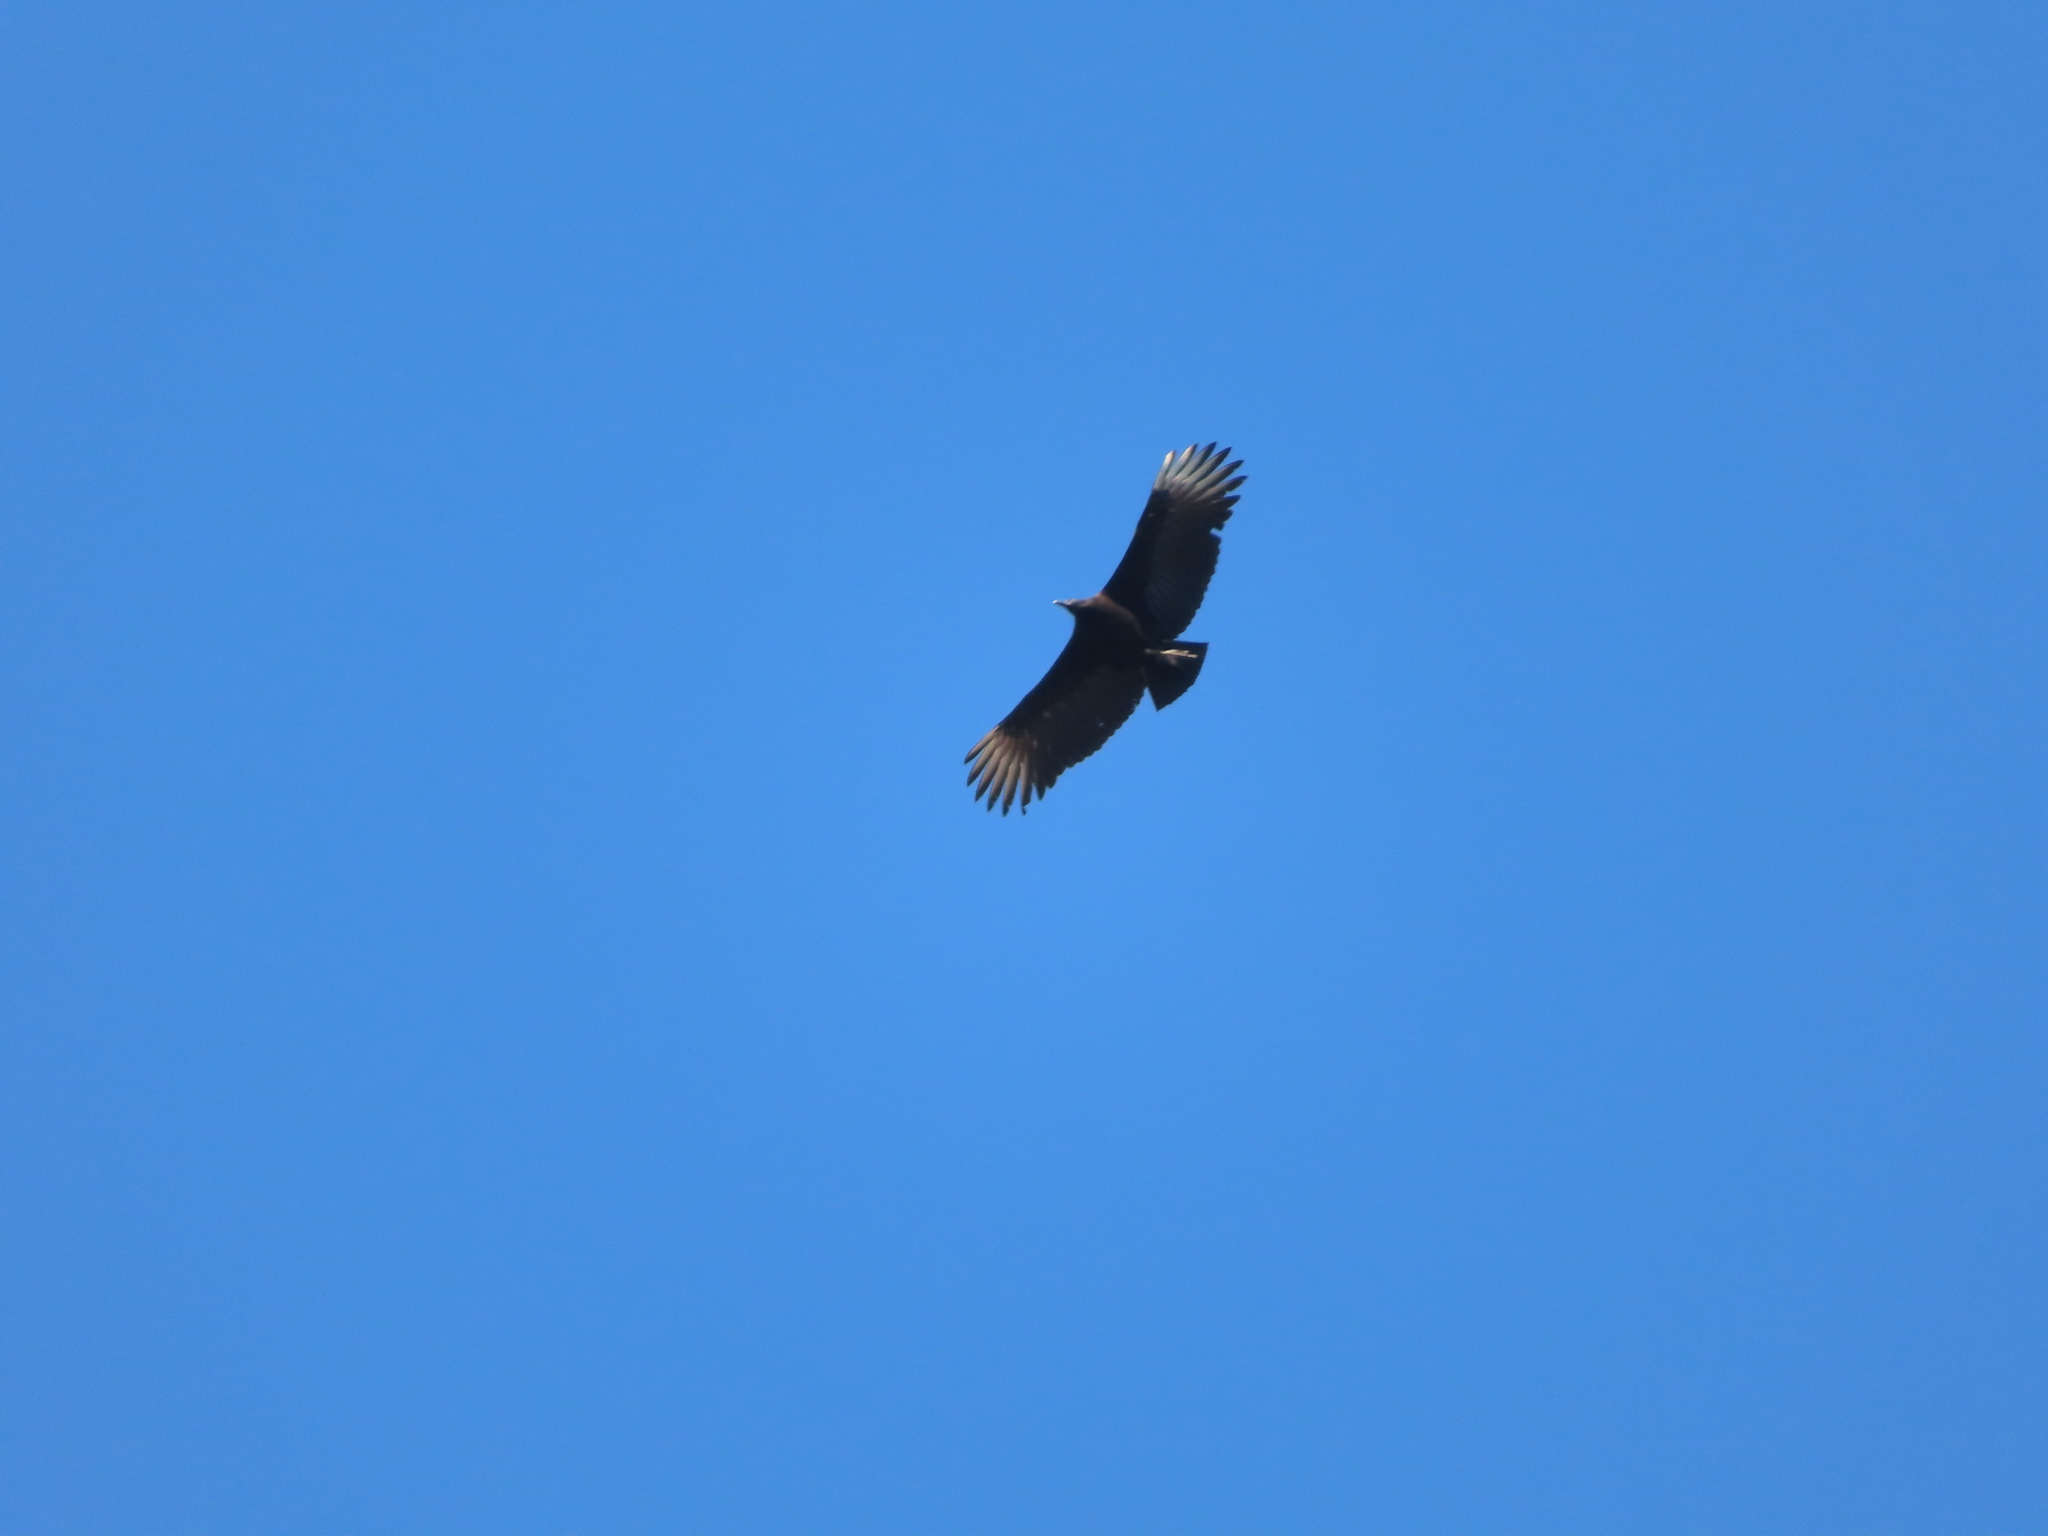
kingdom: Animalia
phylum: Chordata
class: Aves
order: Accipitriformes
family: Cathartidae
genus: Coragyps
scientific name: Coragyps atratus
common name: Black vulture
